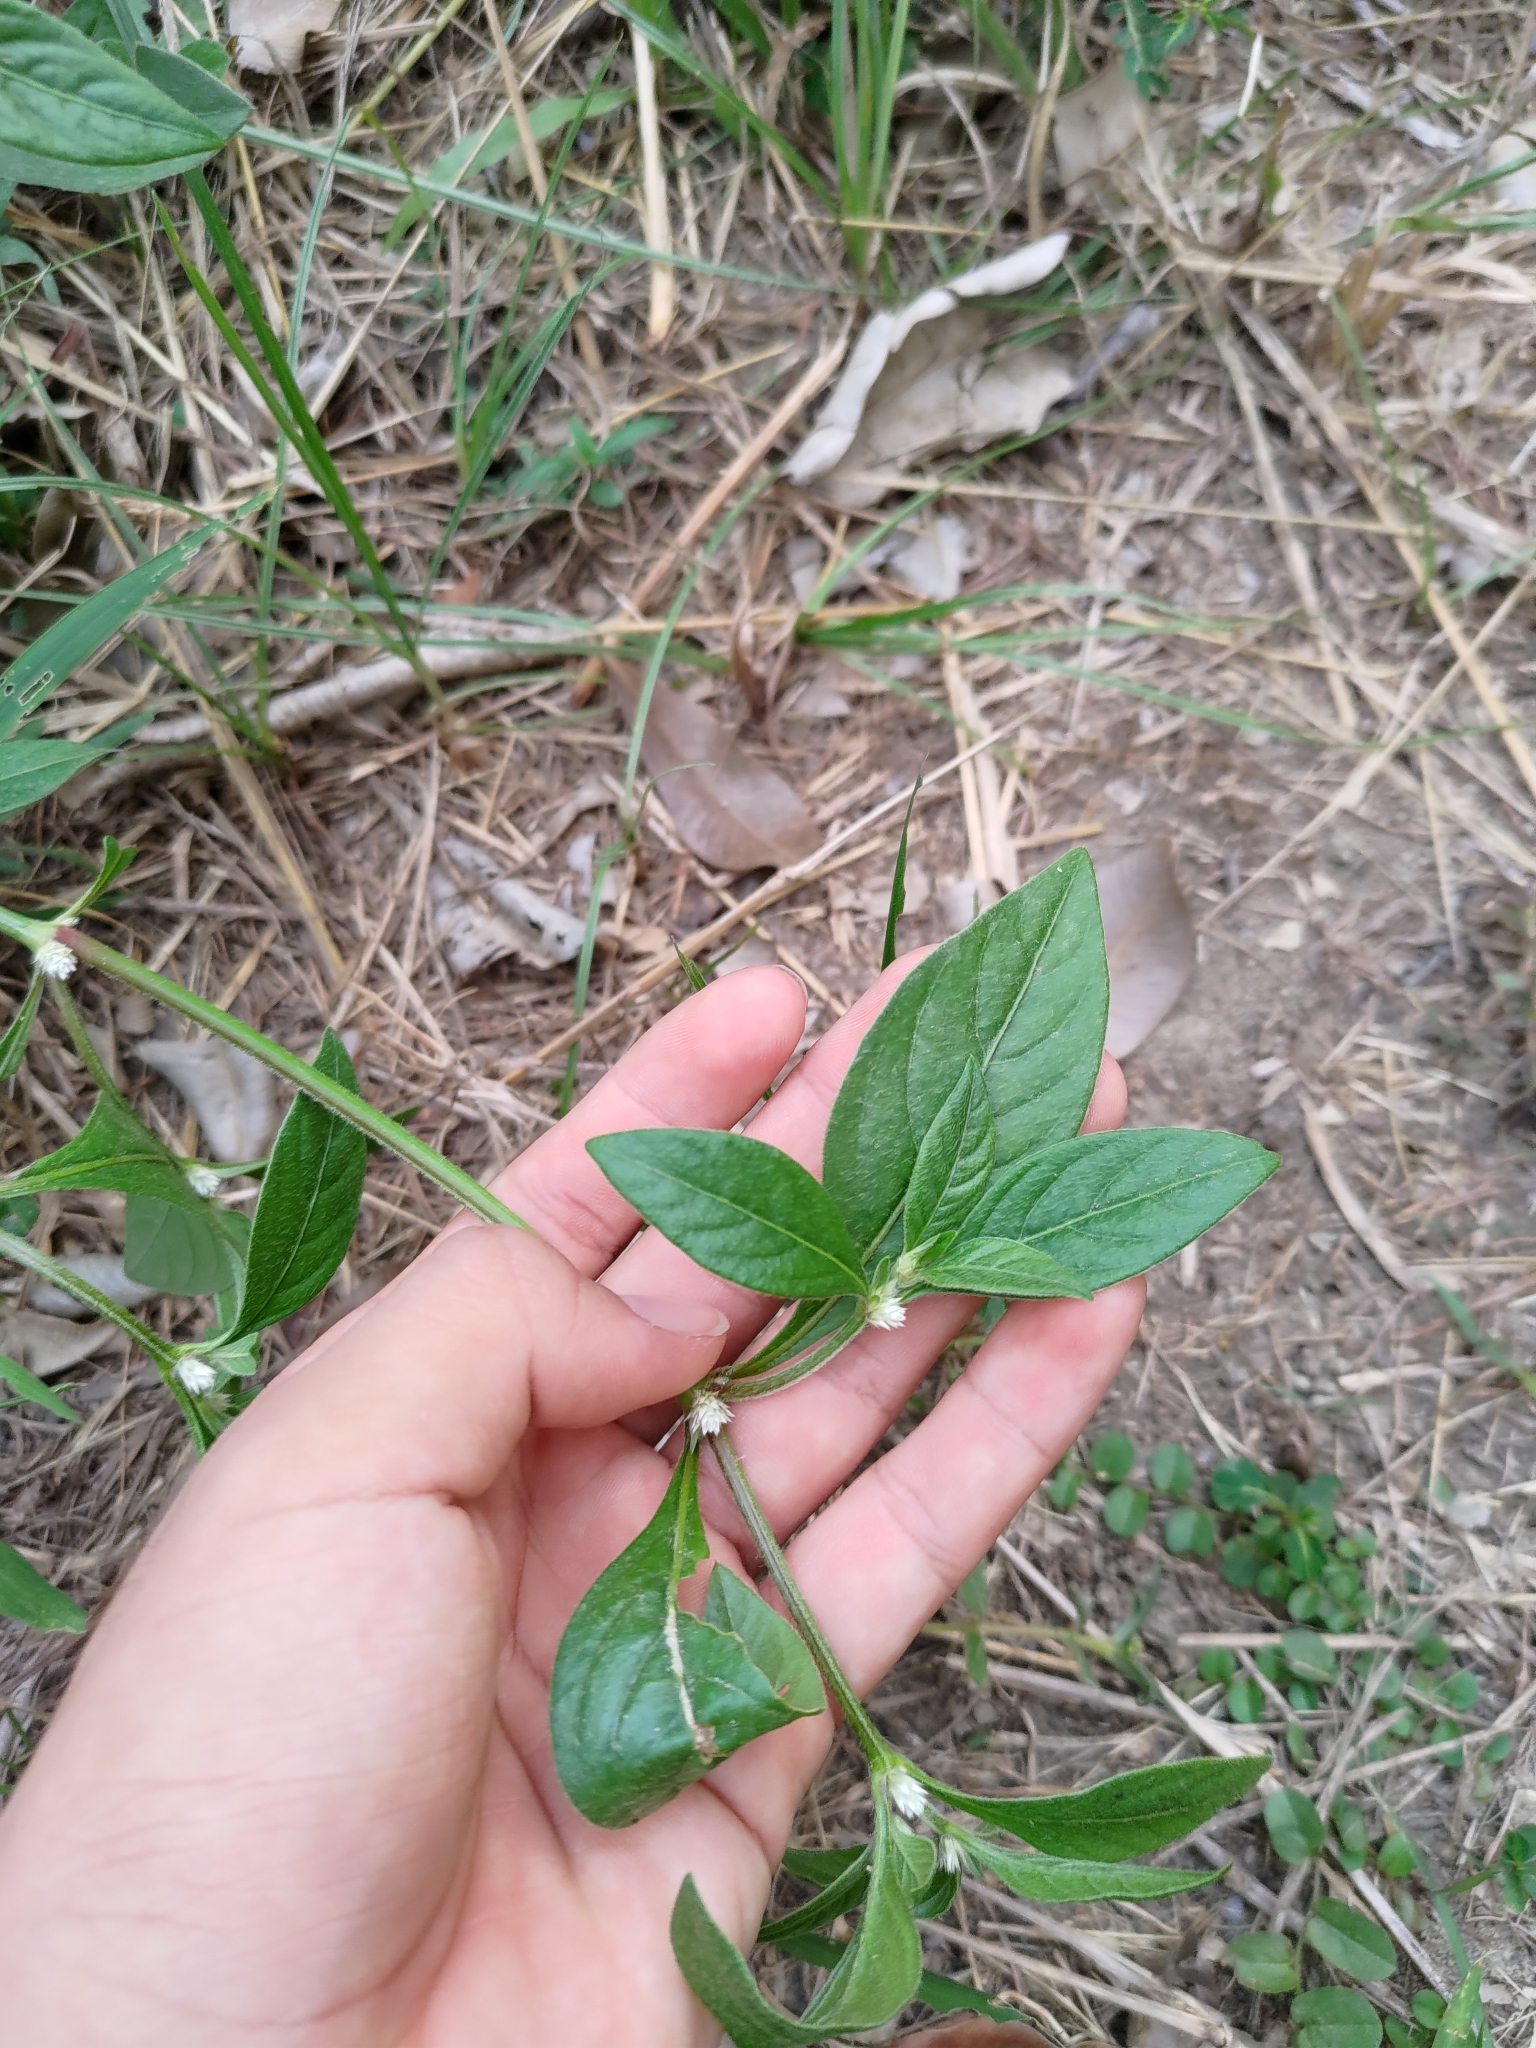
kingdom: Plantae
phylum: Tracheophyta
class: Magnoliopsida
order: Caryophyllales
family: Amaranthaceae
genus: Alternanthera
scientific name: Alternanthera ficoidea
